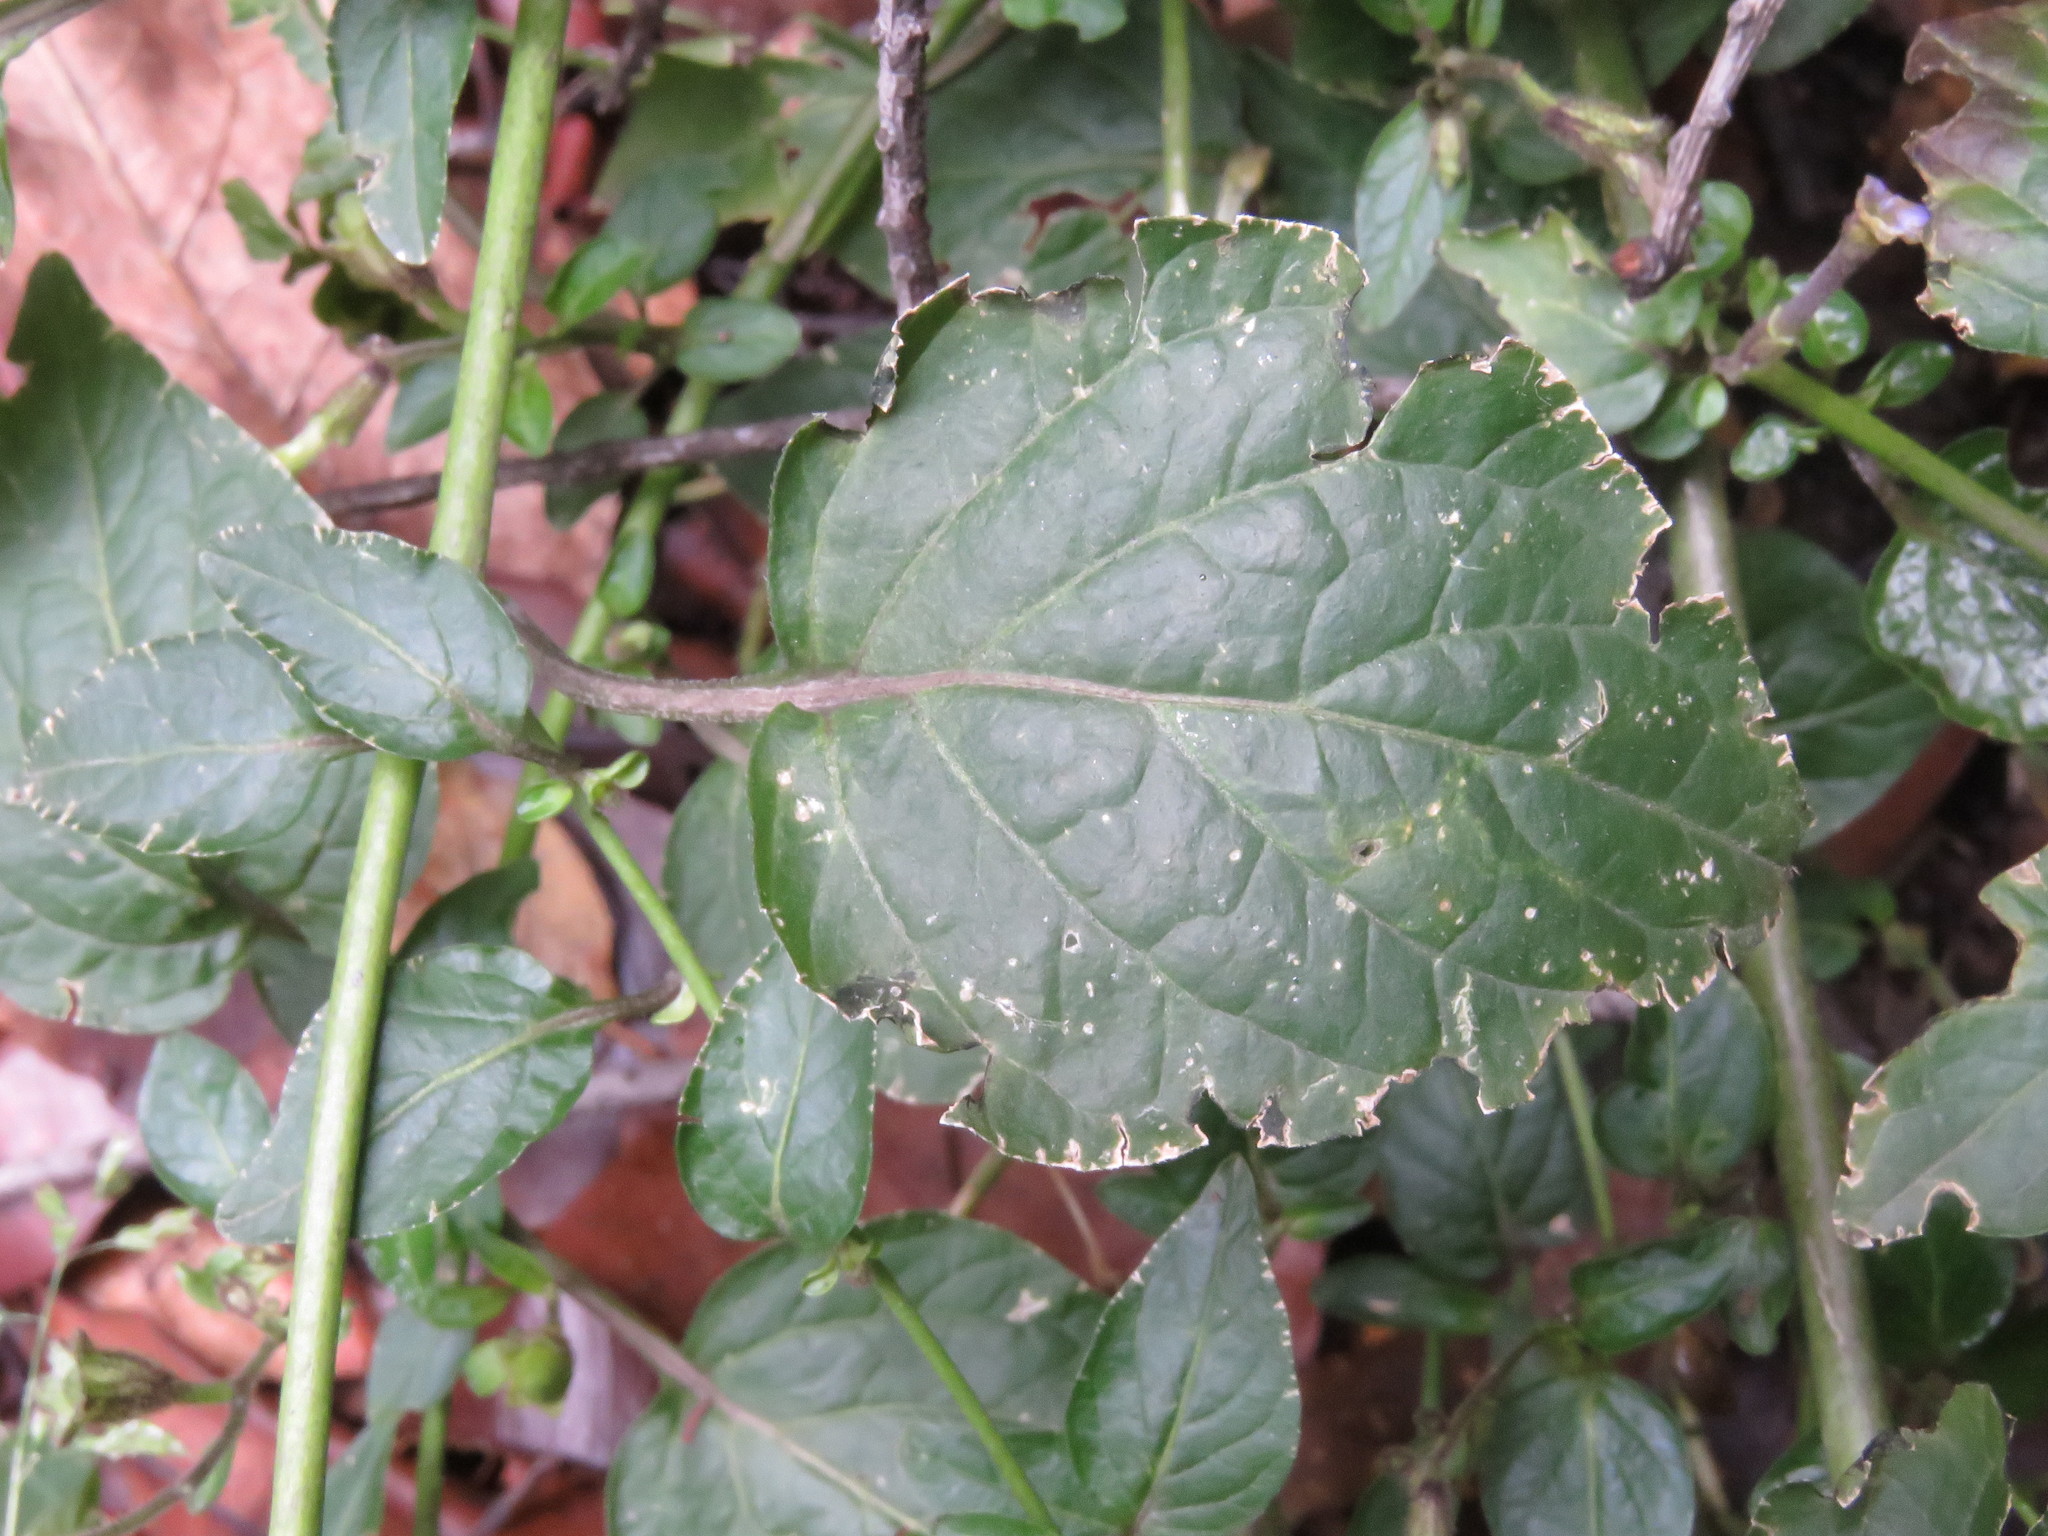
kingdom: Plantae
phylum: Tracheophyta
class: Magnoliopsida
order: Solanales
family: Solanaceae
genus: Browallia
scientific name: Browallia americana
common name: Jamaican forget-me-not
